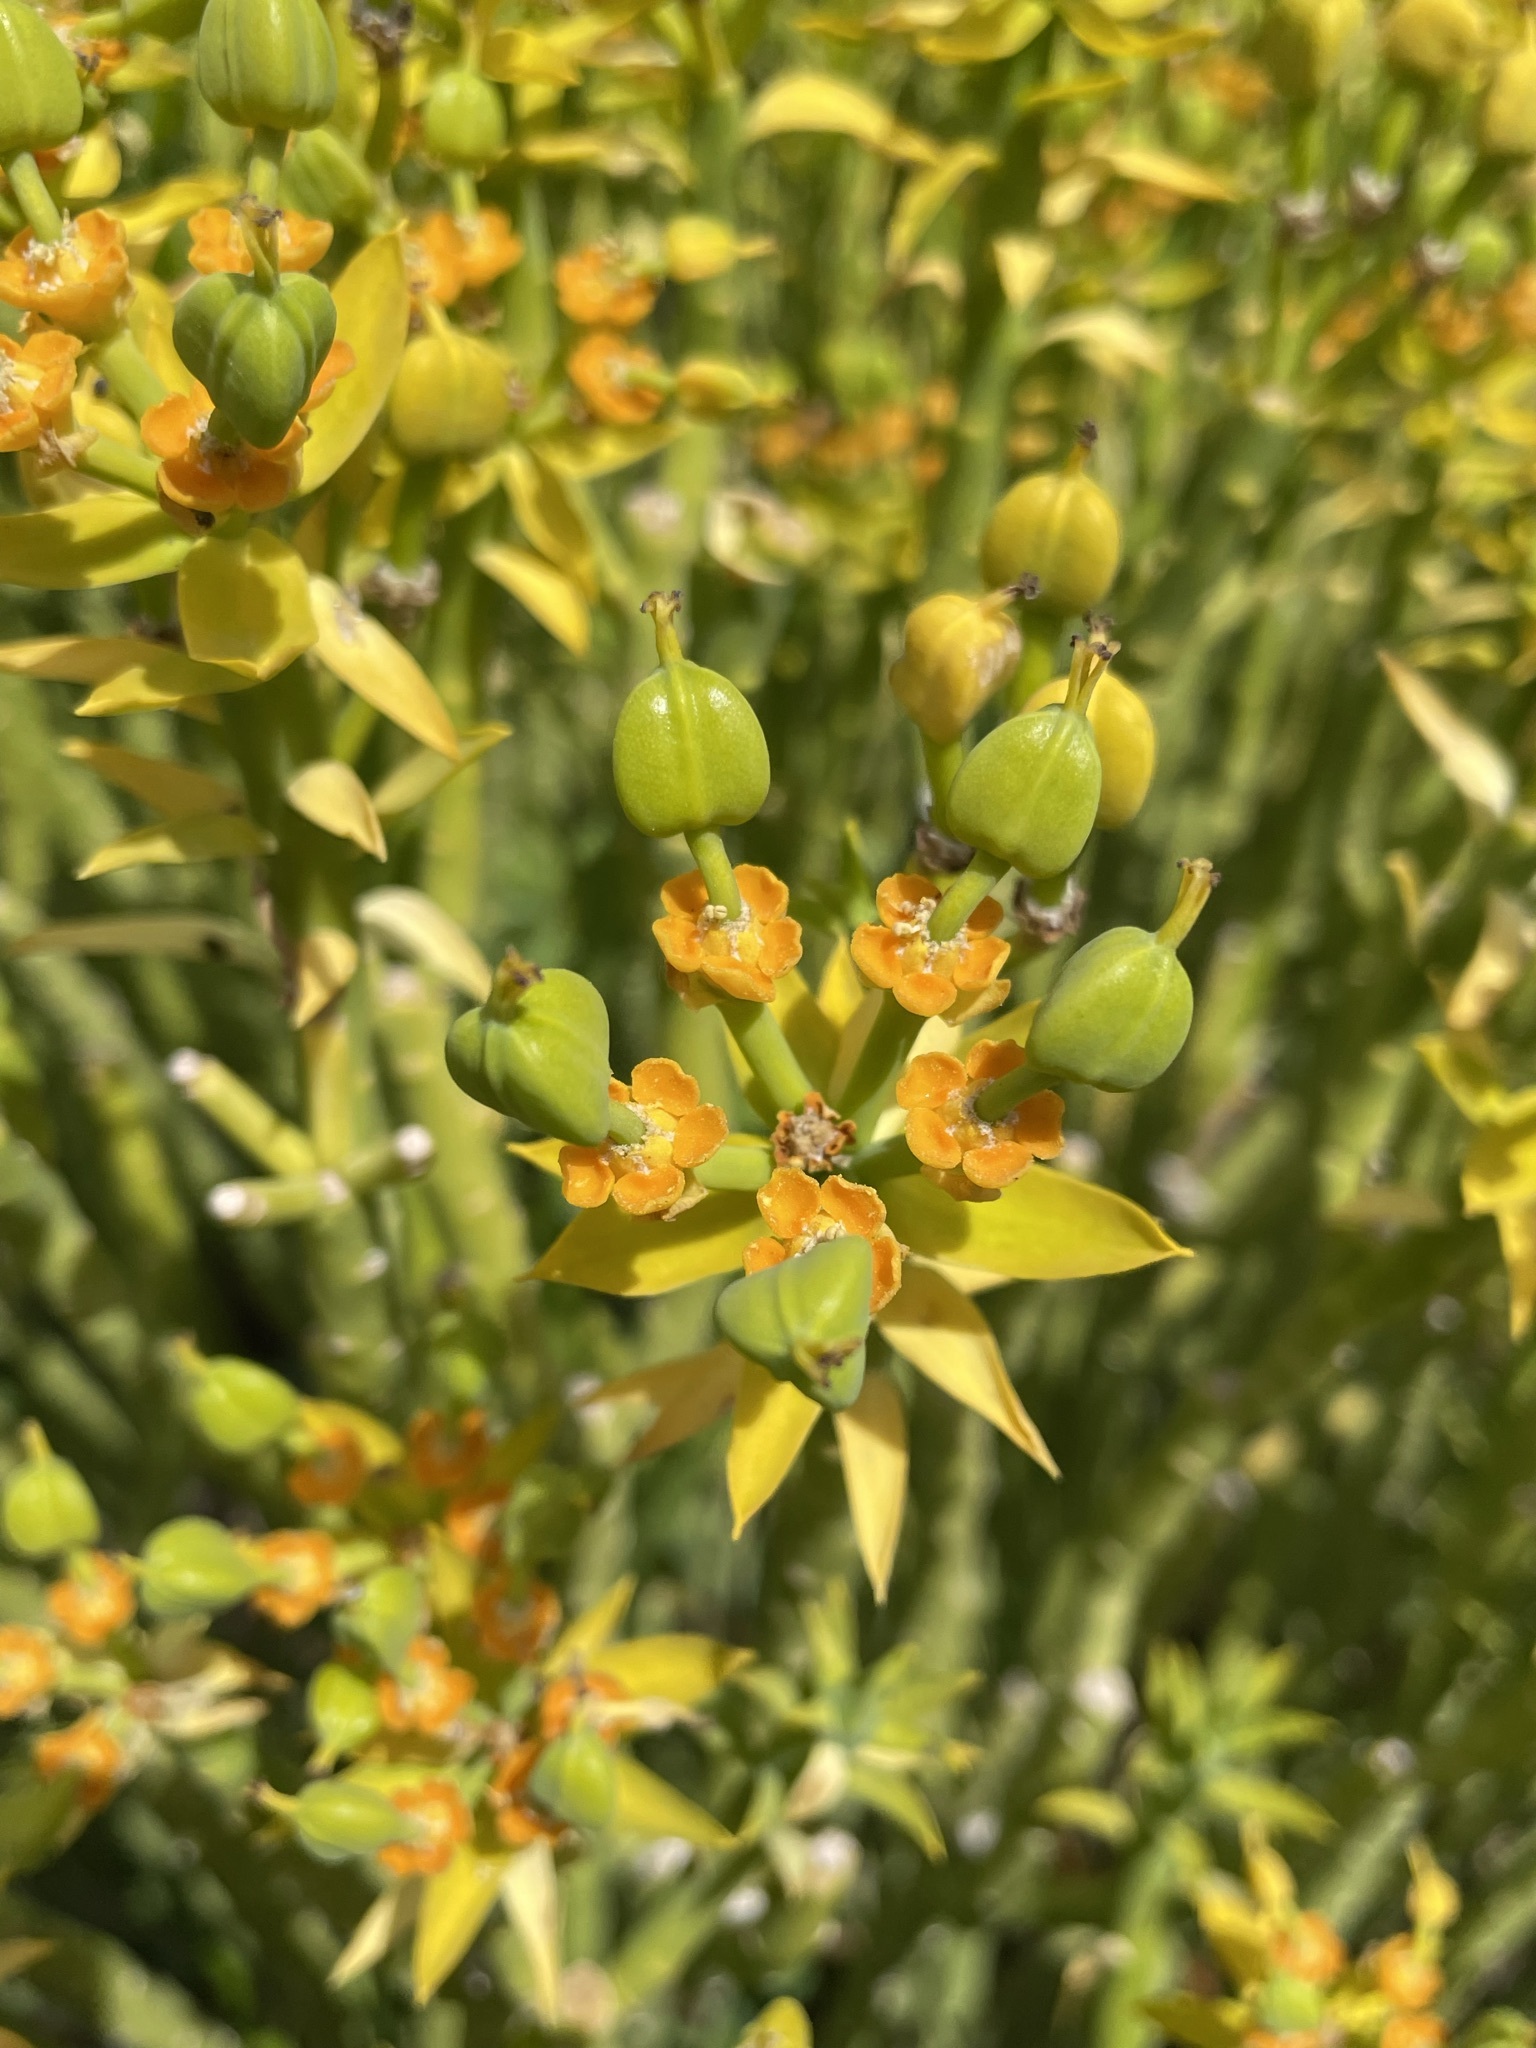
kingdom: Plantae
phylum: Tracheophyta
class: Magnoliopsida
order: Malpighiales
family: Euphorbiaceae
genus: Euphorbia
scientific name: Euphorbia mauritanica
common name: Jackal's-food
